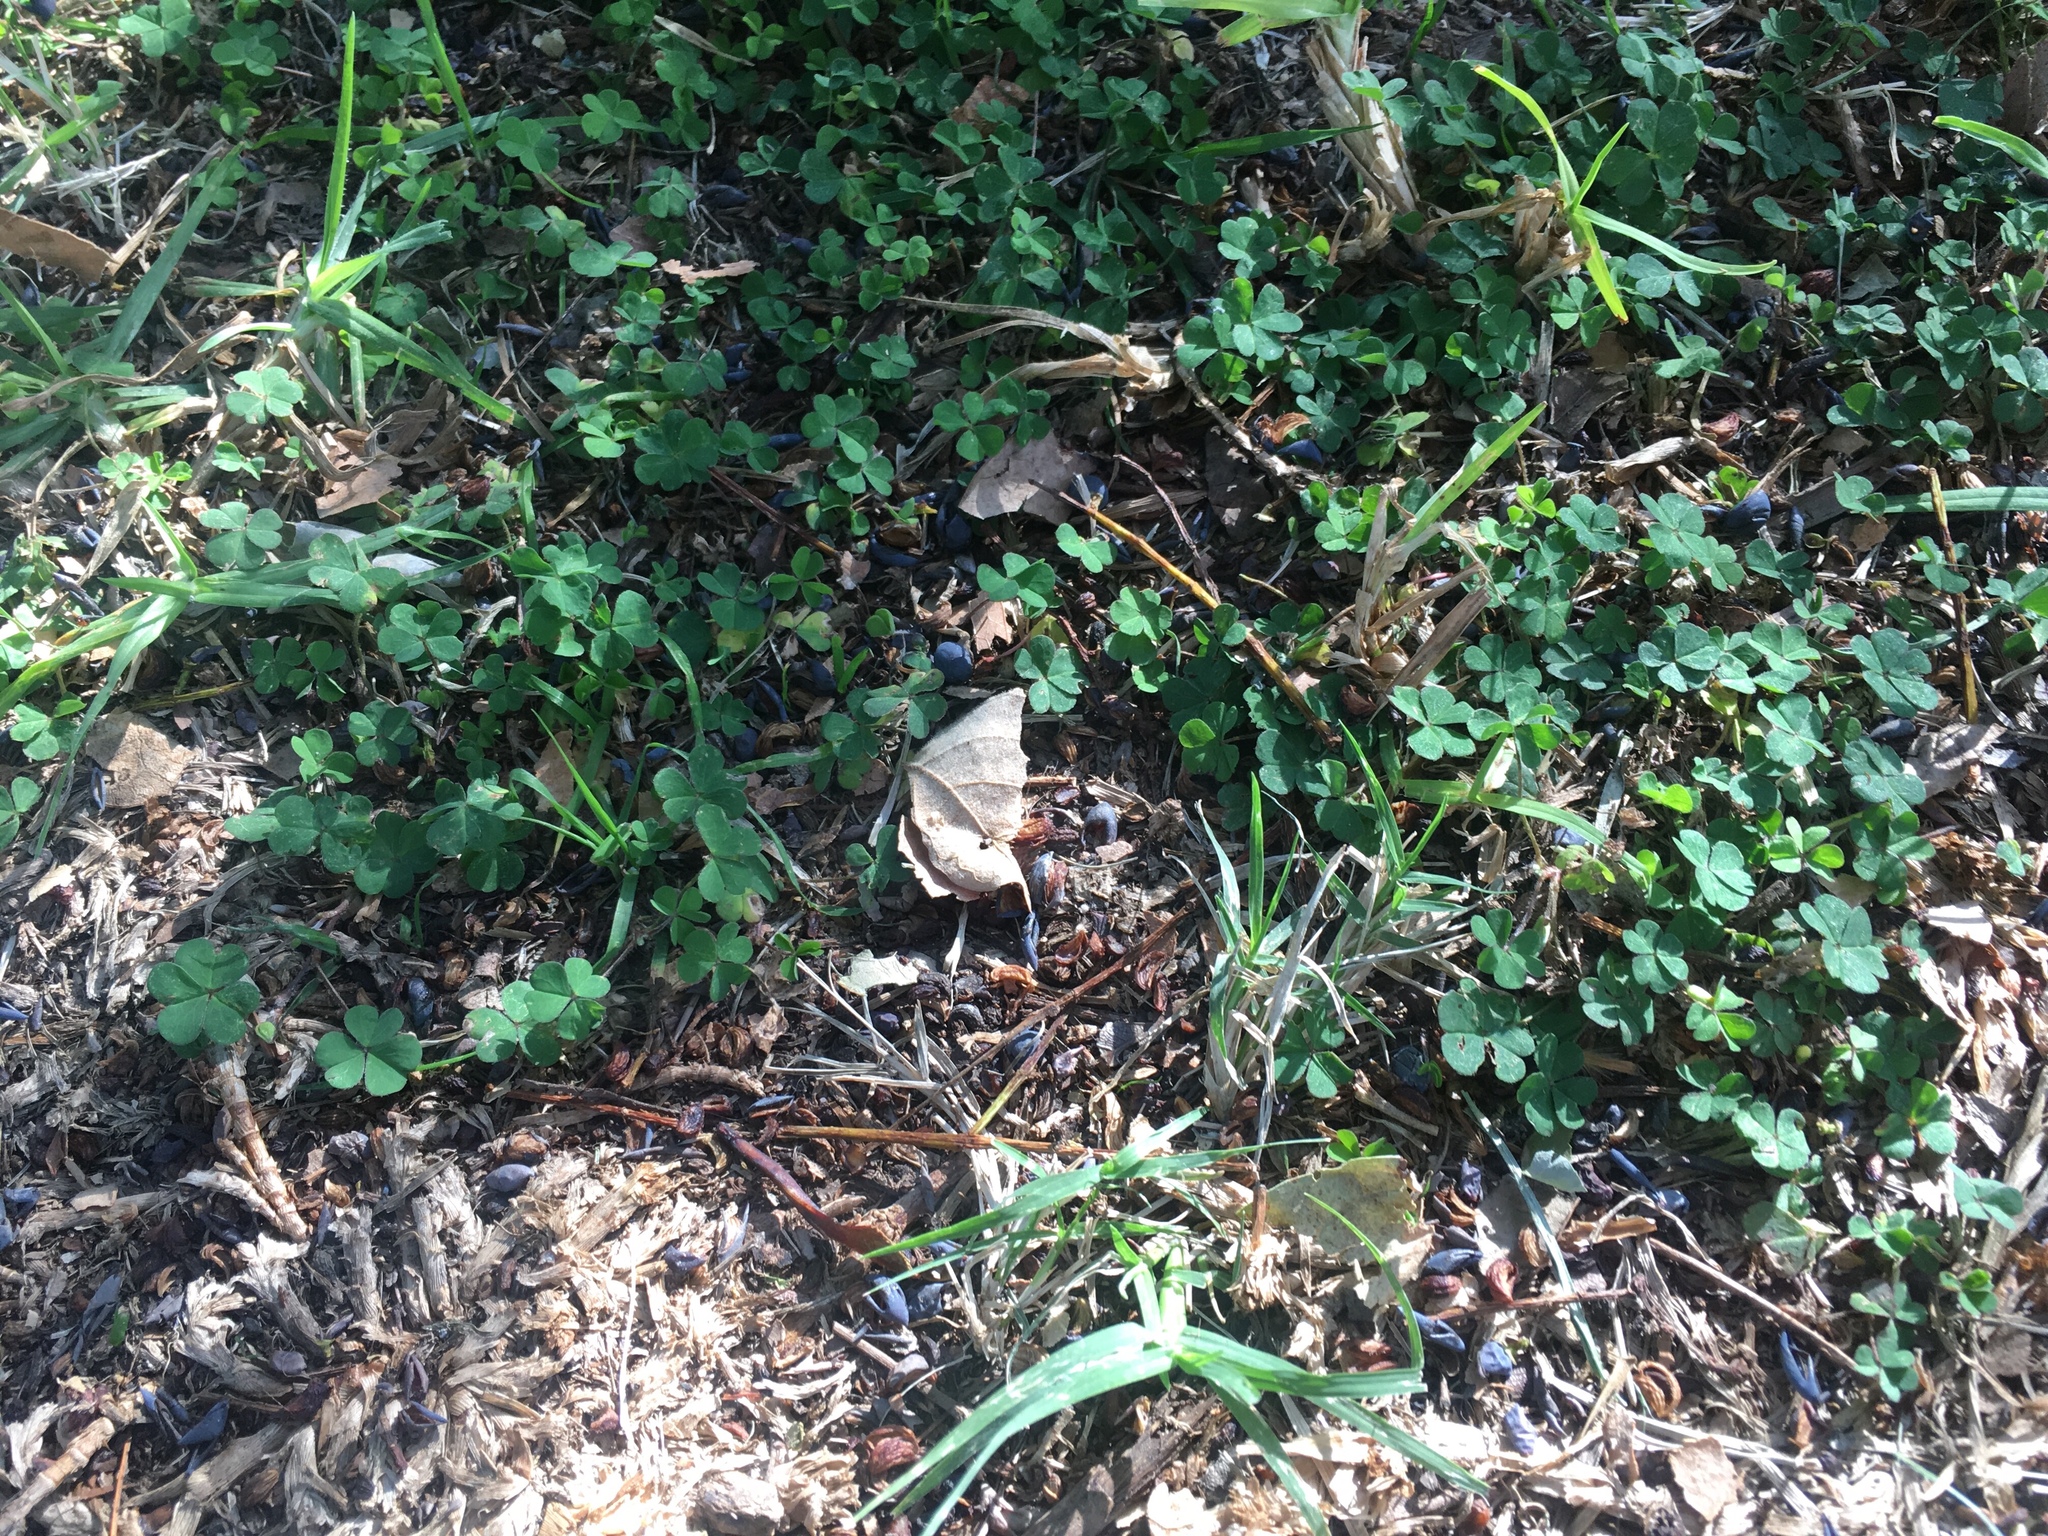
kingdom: Plantae
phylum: Tracheophyta
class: Magnoliopsida
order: Oxalidales
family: Oxalidaceae
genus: Oxalis
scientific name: Oxalis corniculata
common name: Procumbent yellow-sorrel
